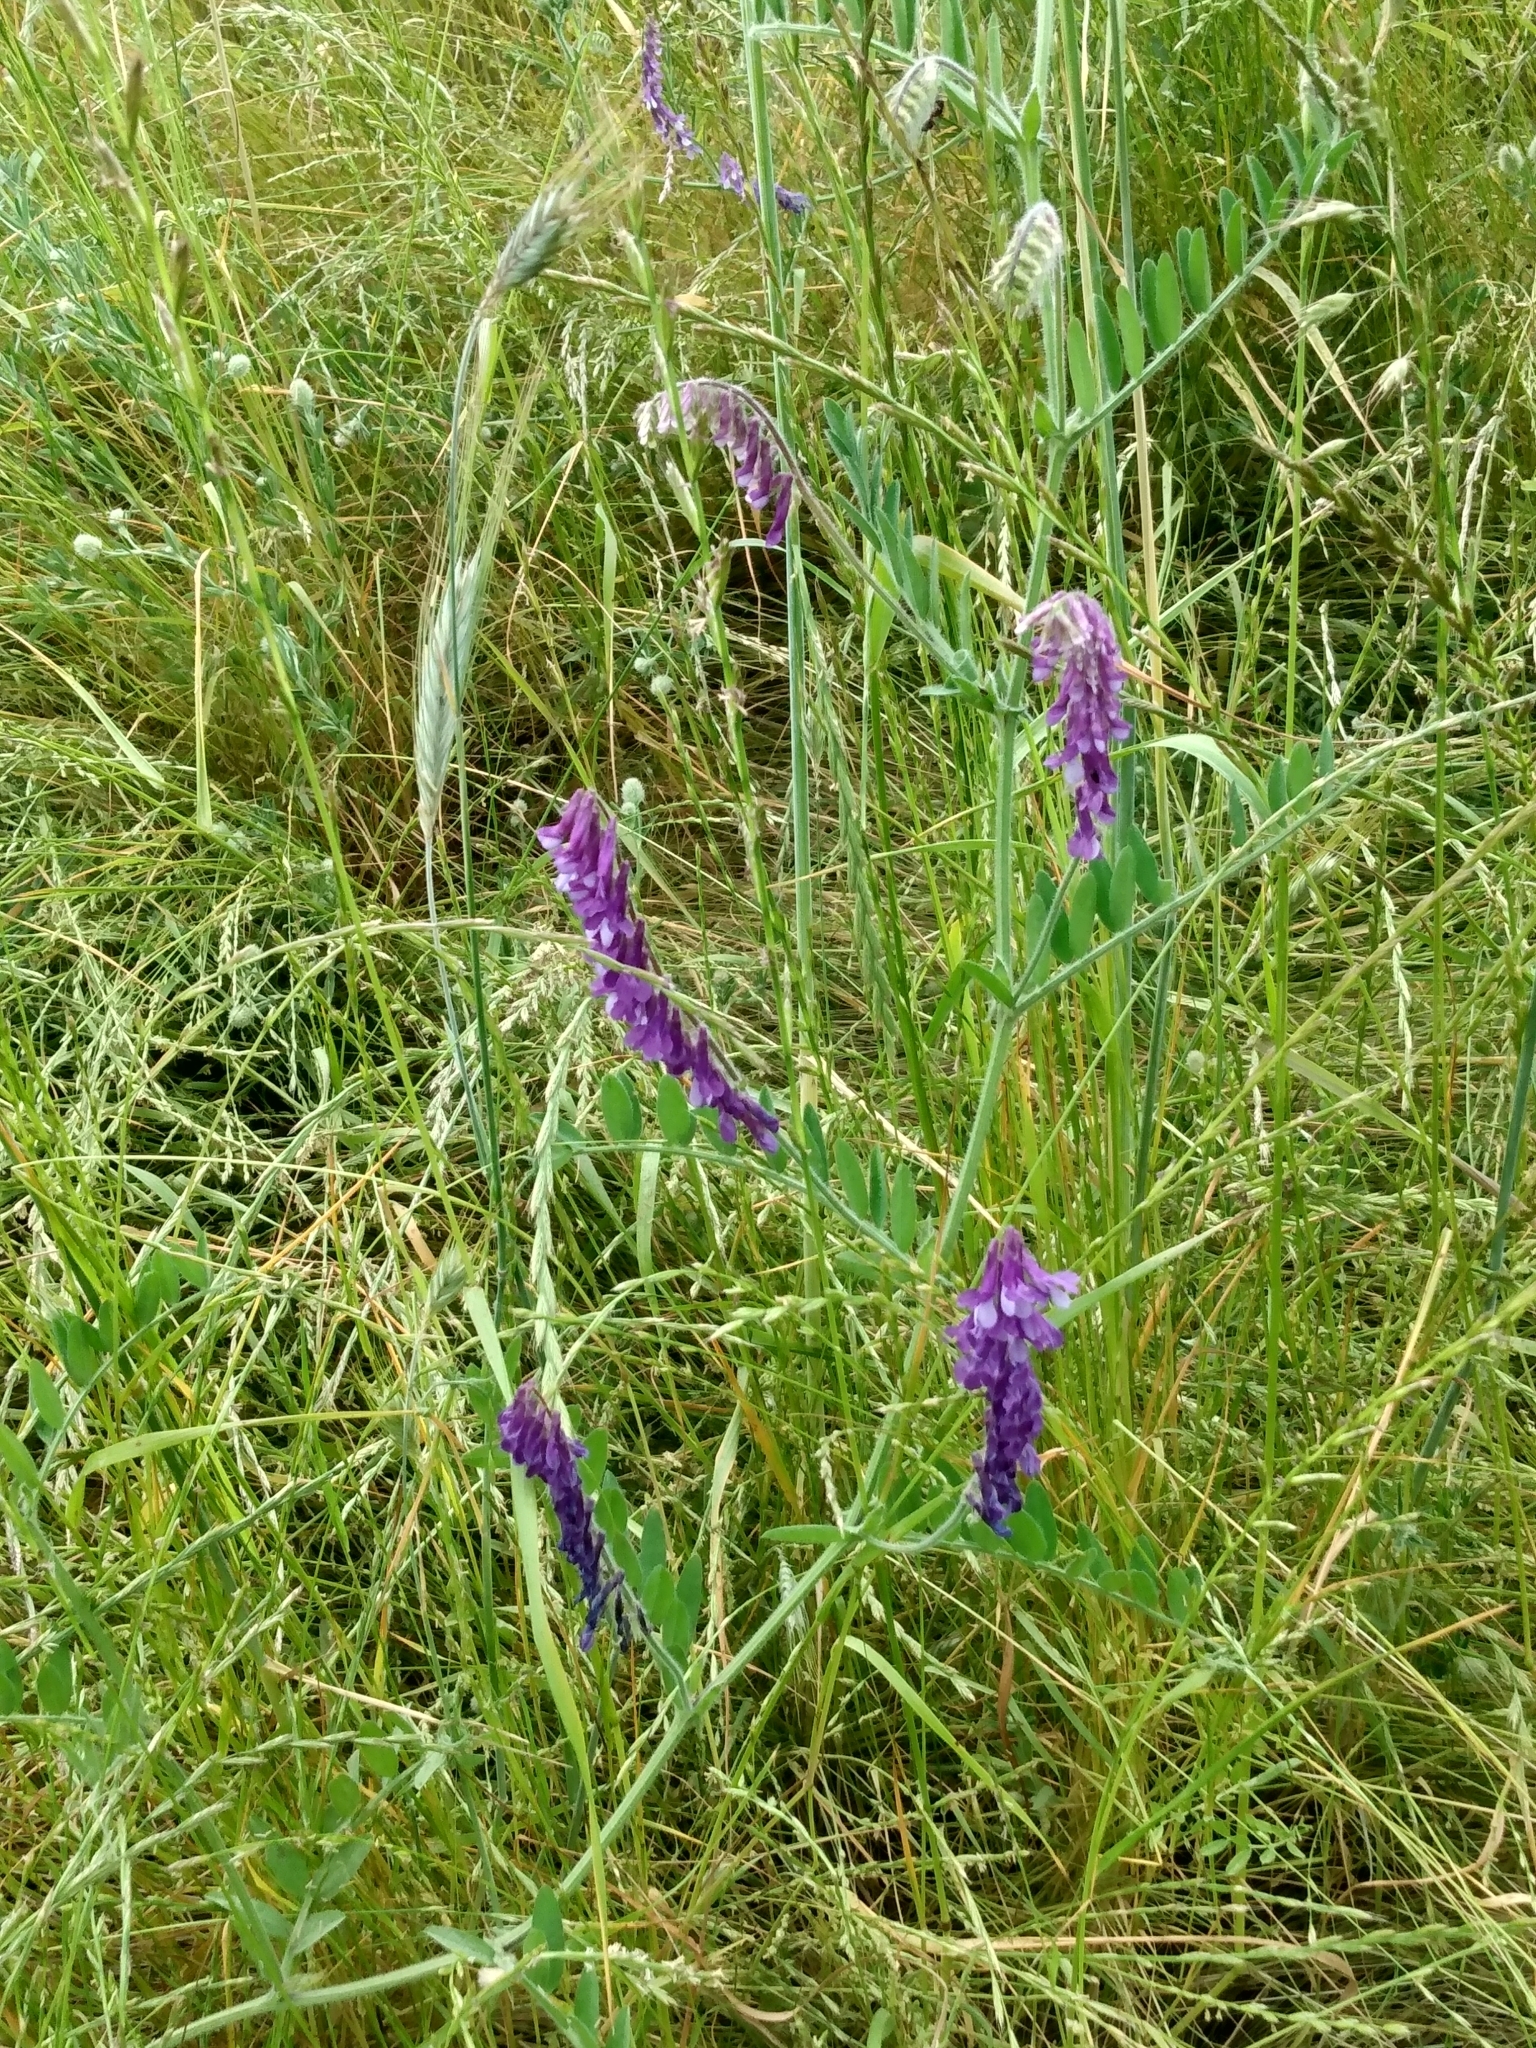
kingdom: Plantae
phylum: Tracheophyta
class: Magnoliopsida
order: Fabales
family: Fabaceae
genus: Vicia
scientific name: Vicia villosa
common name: Fodder vetch
